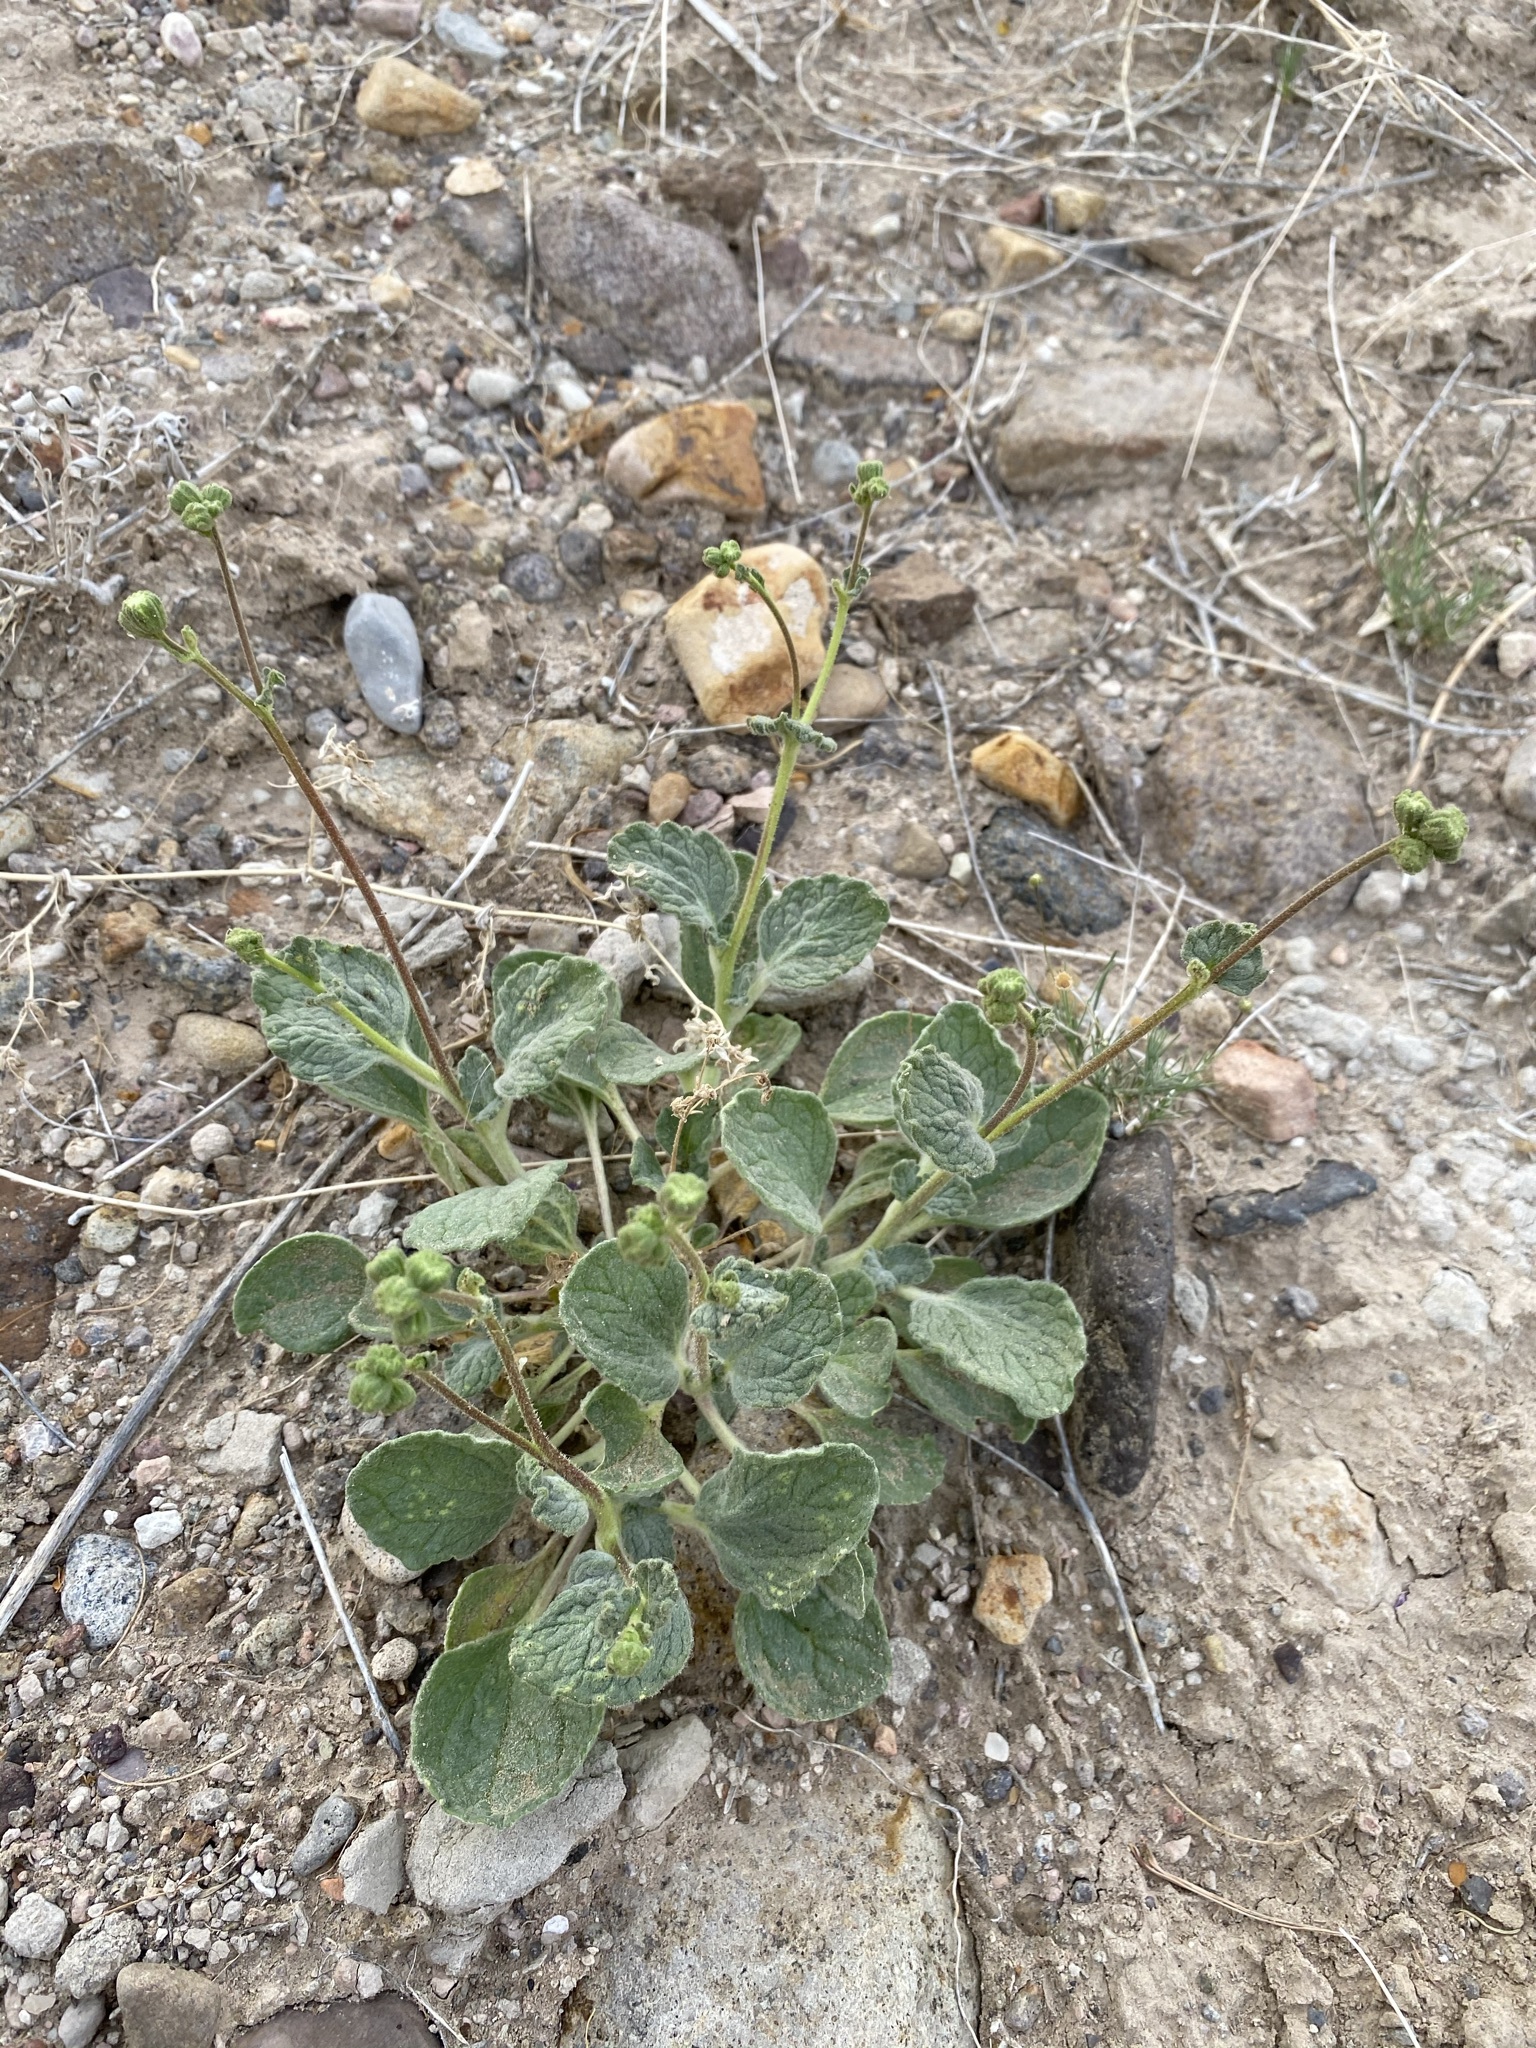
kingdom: Plantae
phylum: Tracheophyta
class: Magnoliopsida
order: Asterales
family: Asteraceae
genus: Psathyrotopsis
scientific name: Psathyrotopsis scaposa
